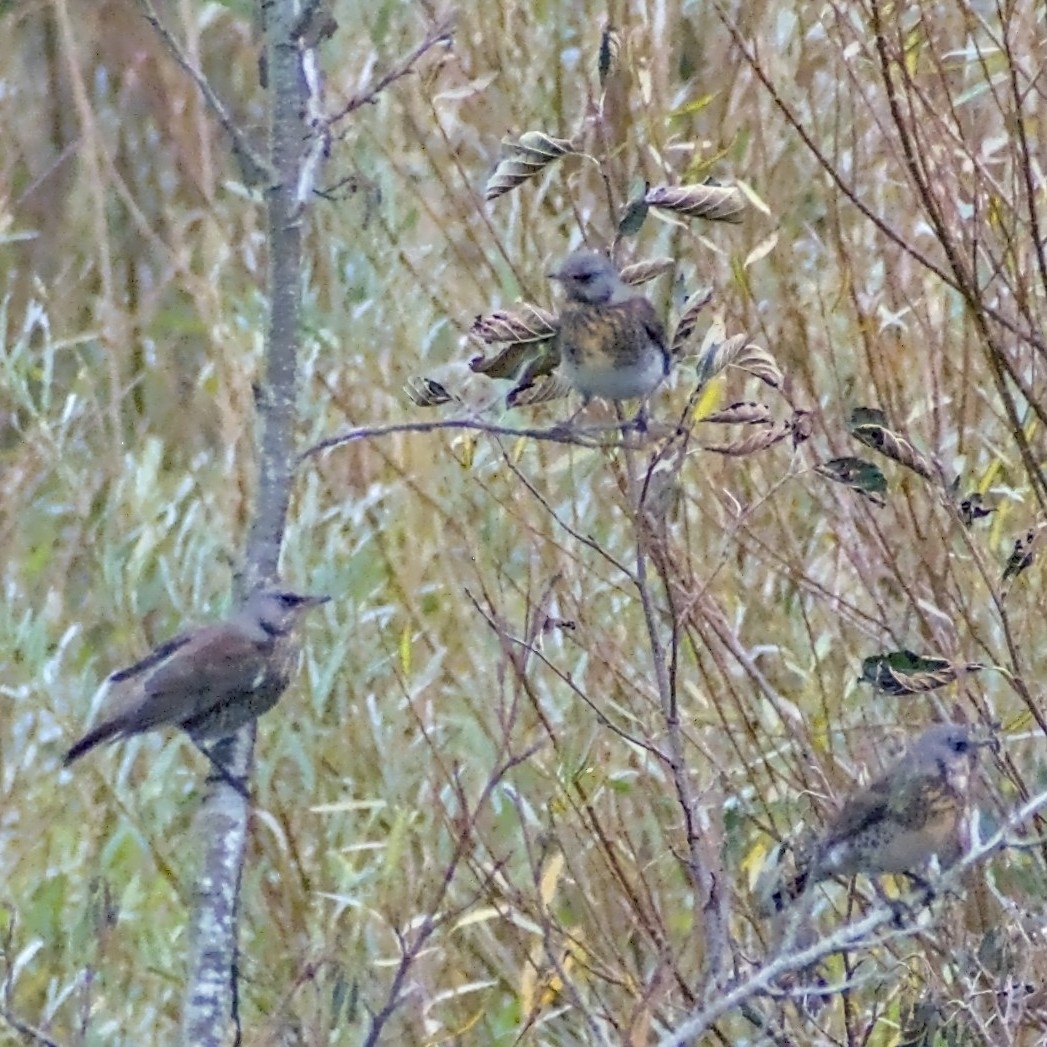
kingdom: Animalia
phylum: Chordata
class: Aves
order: Passeriformes
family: Turdidae
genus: Turdus
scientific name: Turdus pilaris
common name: Fieldfare
